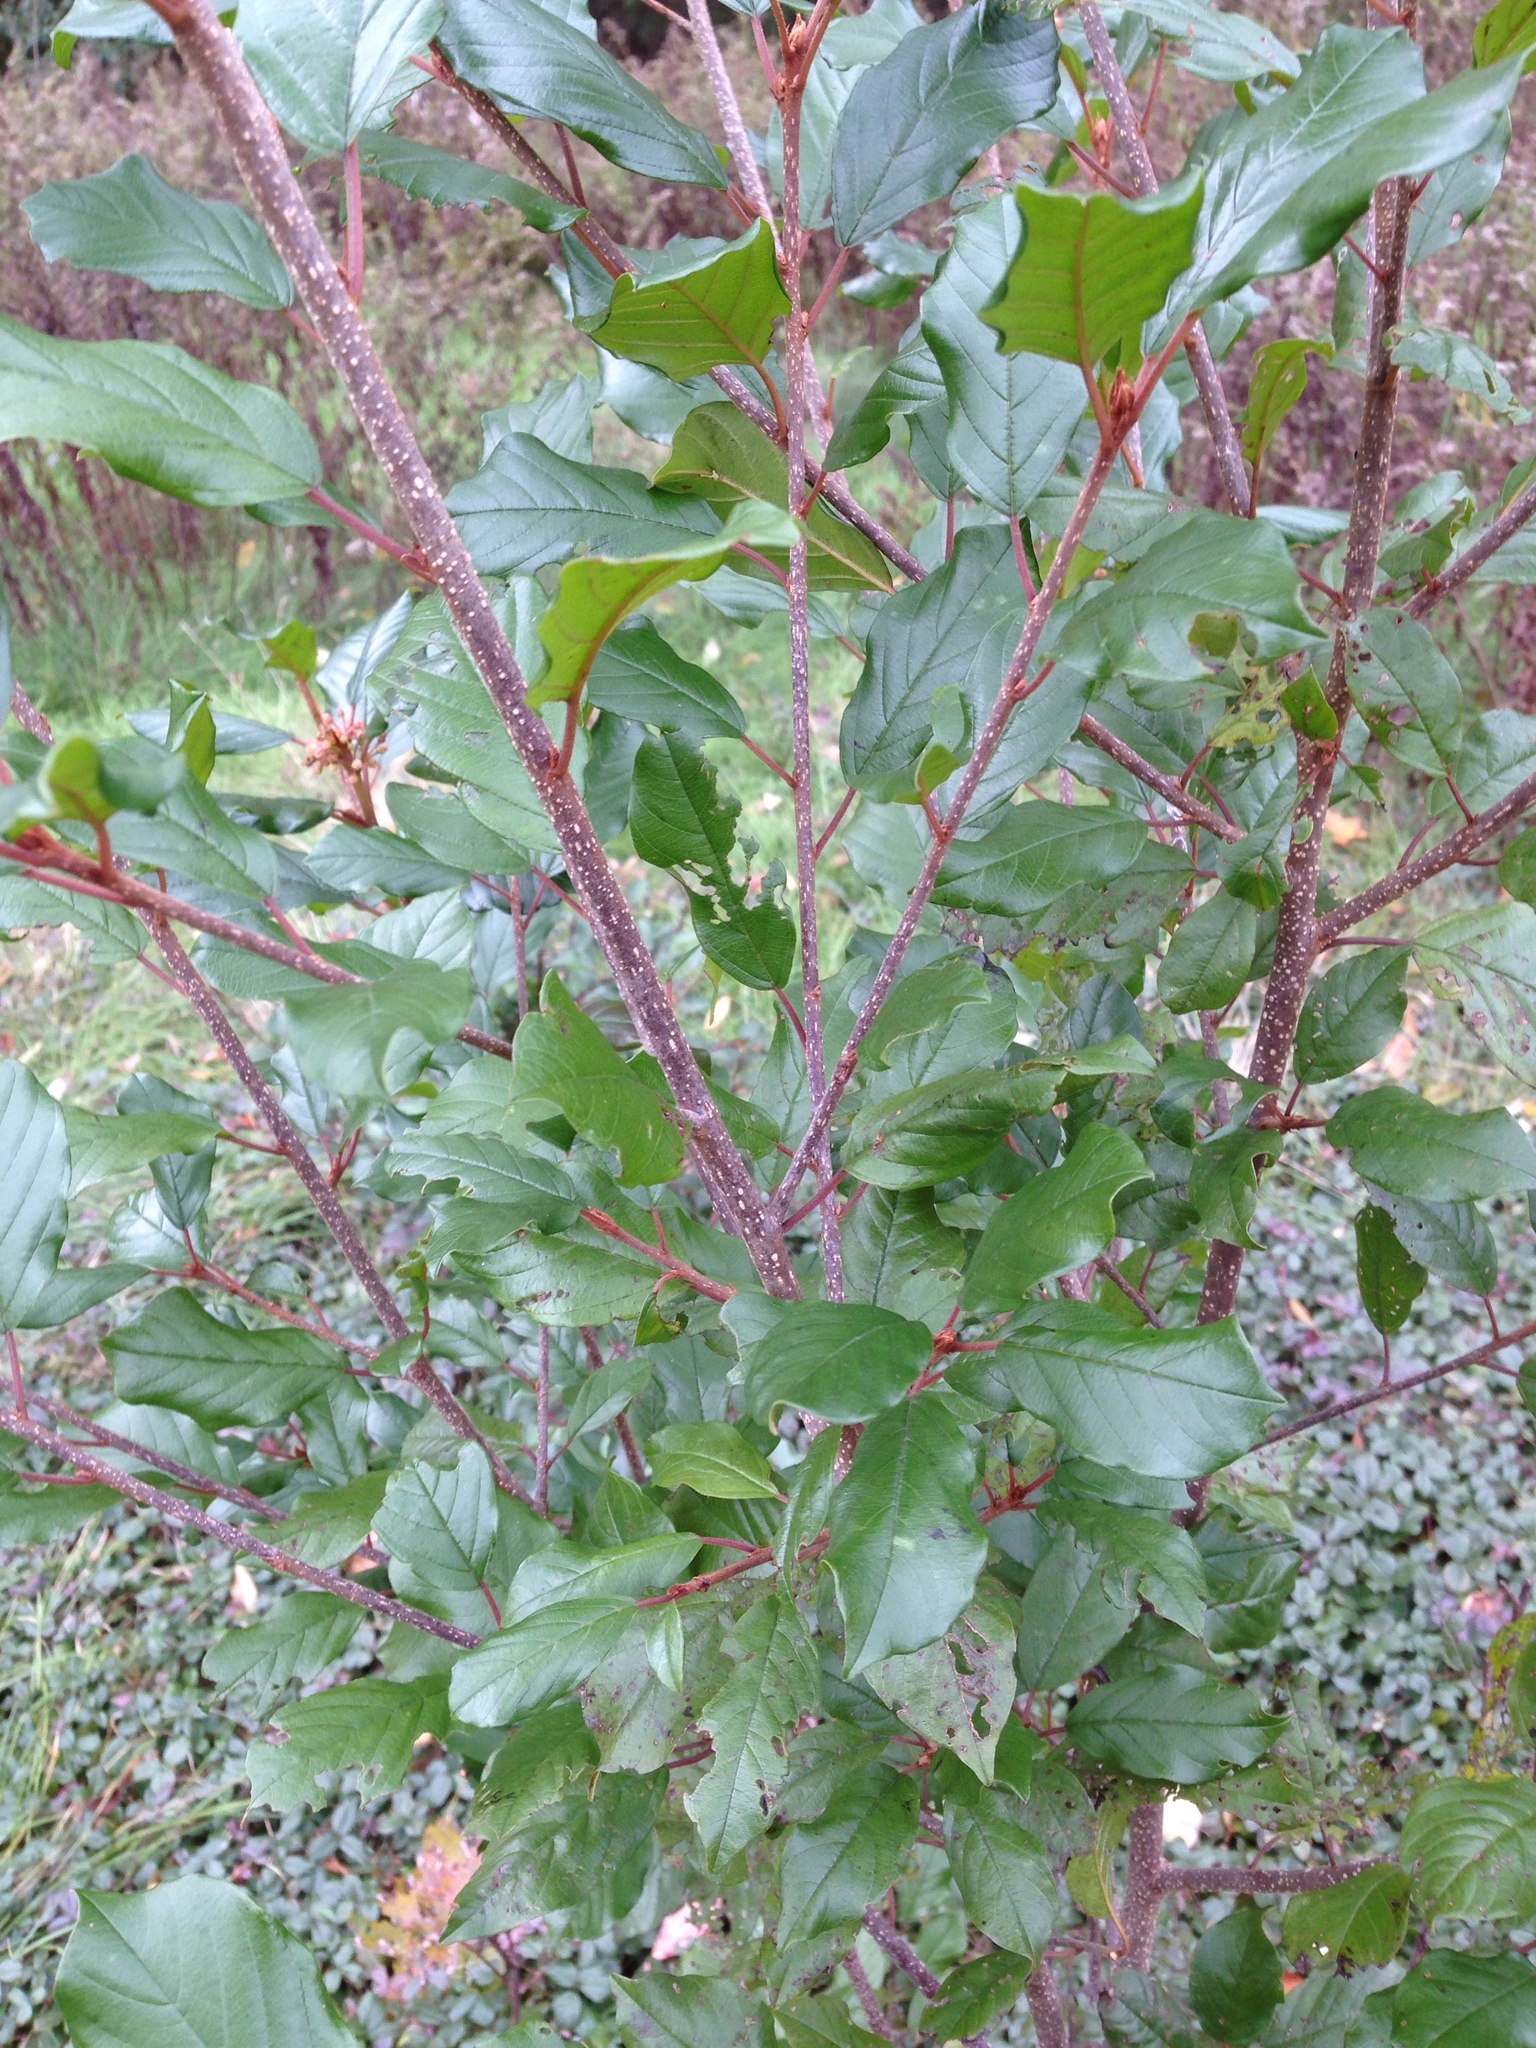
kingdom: Plantae
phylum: Tracheophyta
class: Magnoliopsida
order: Rosales
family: Rhamnaceae
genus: Frangula
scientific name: Frangula alnus
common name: Alder buckthorn
